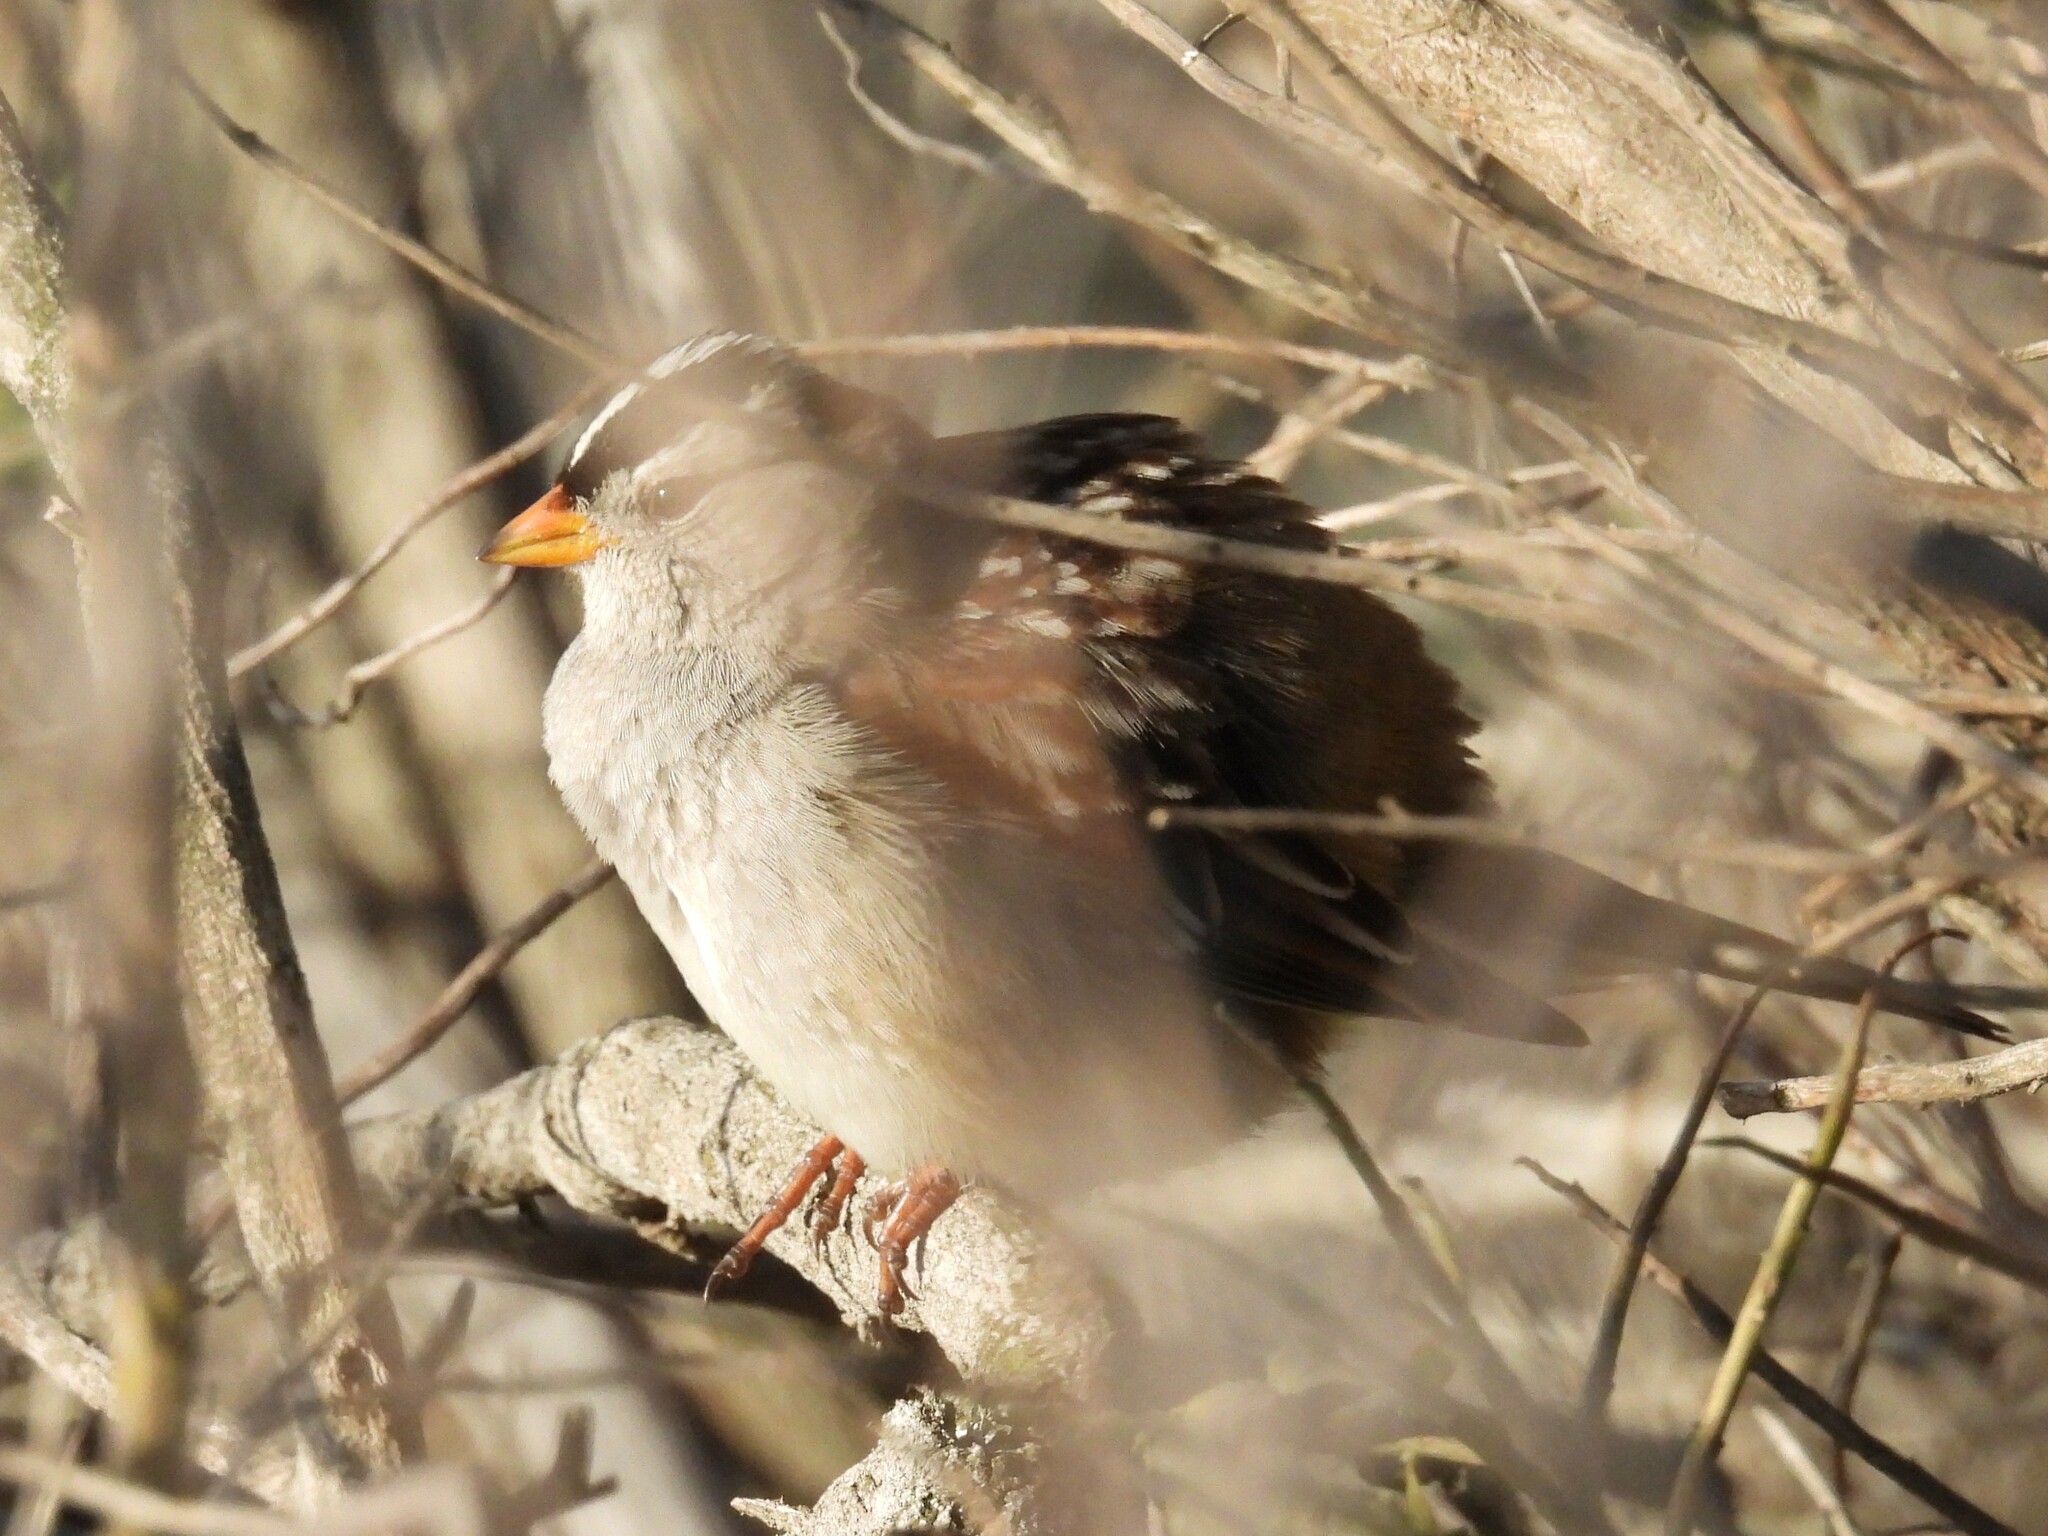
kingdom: Animalia
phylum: Chordata
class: Aves
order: Passeriformes
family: Passerellidae
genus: Zonotrichia
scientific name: Zonotrichia leucophrys
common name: White-crowned sparrow
